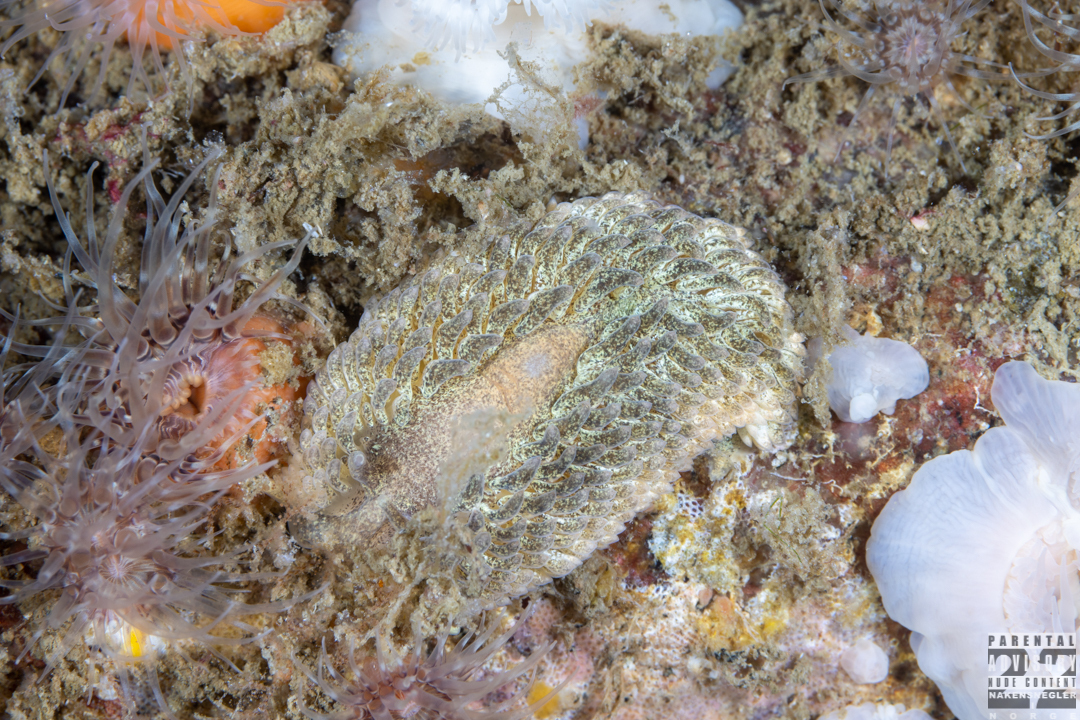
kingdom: Animalia
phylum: Mollusca
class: Gastropoda
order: Nudibranchia
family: Aeolidiidae
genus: Aeolidia
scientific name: Aeolidia papillosa
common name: Common grey sea slug
